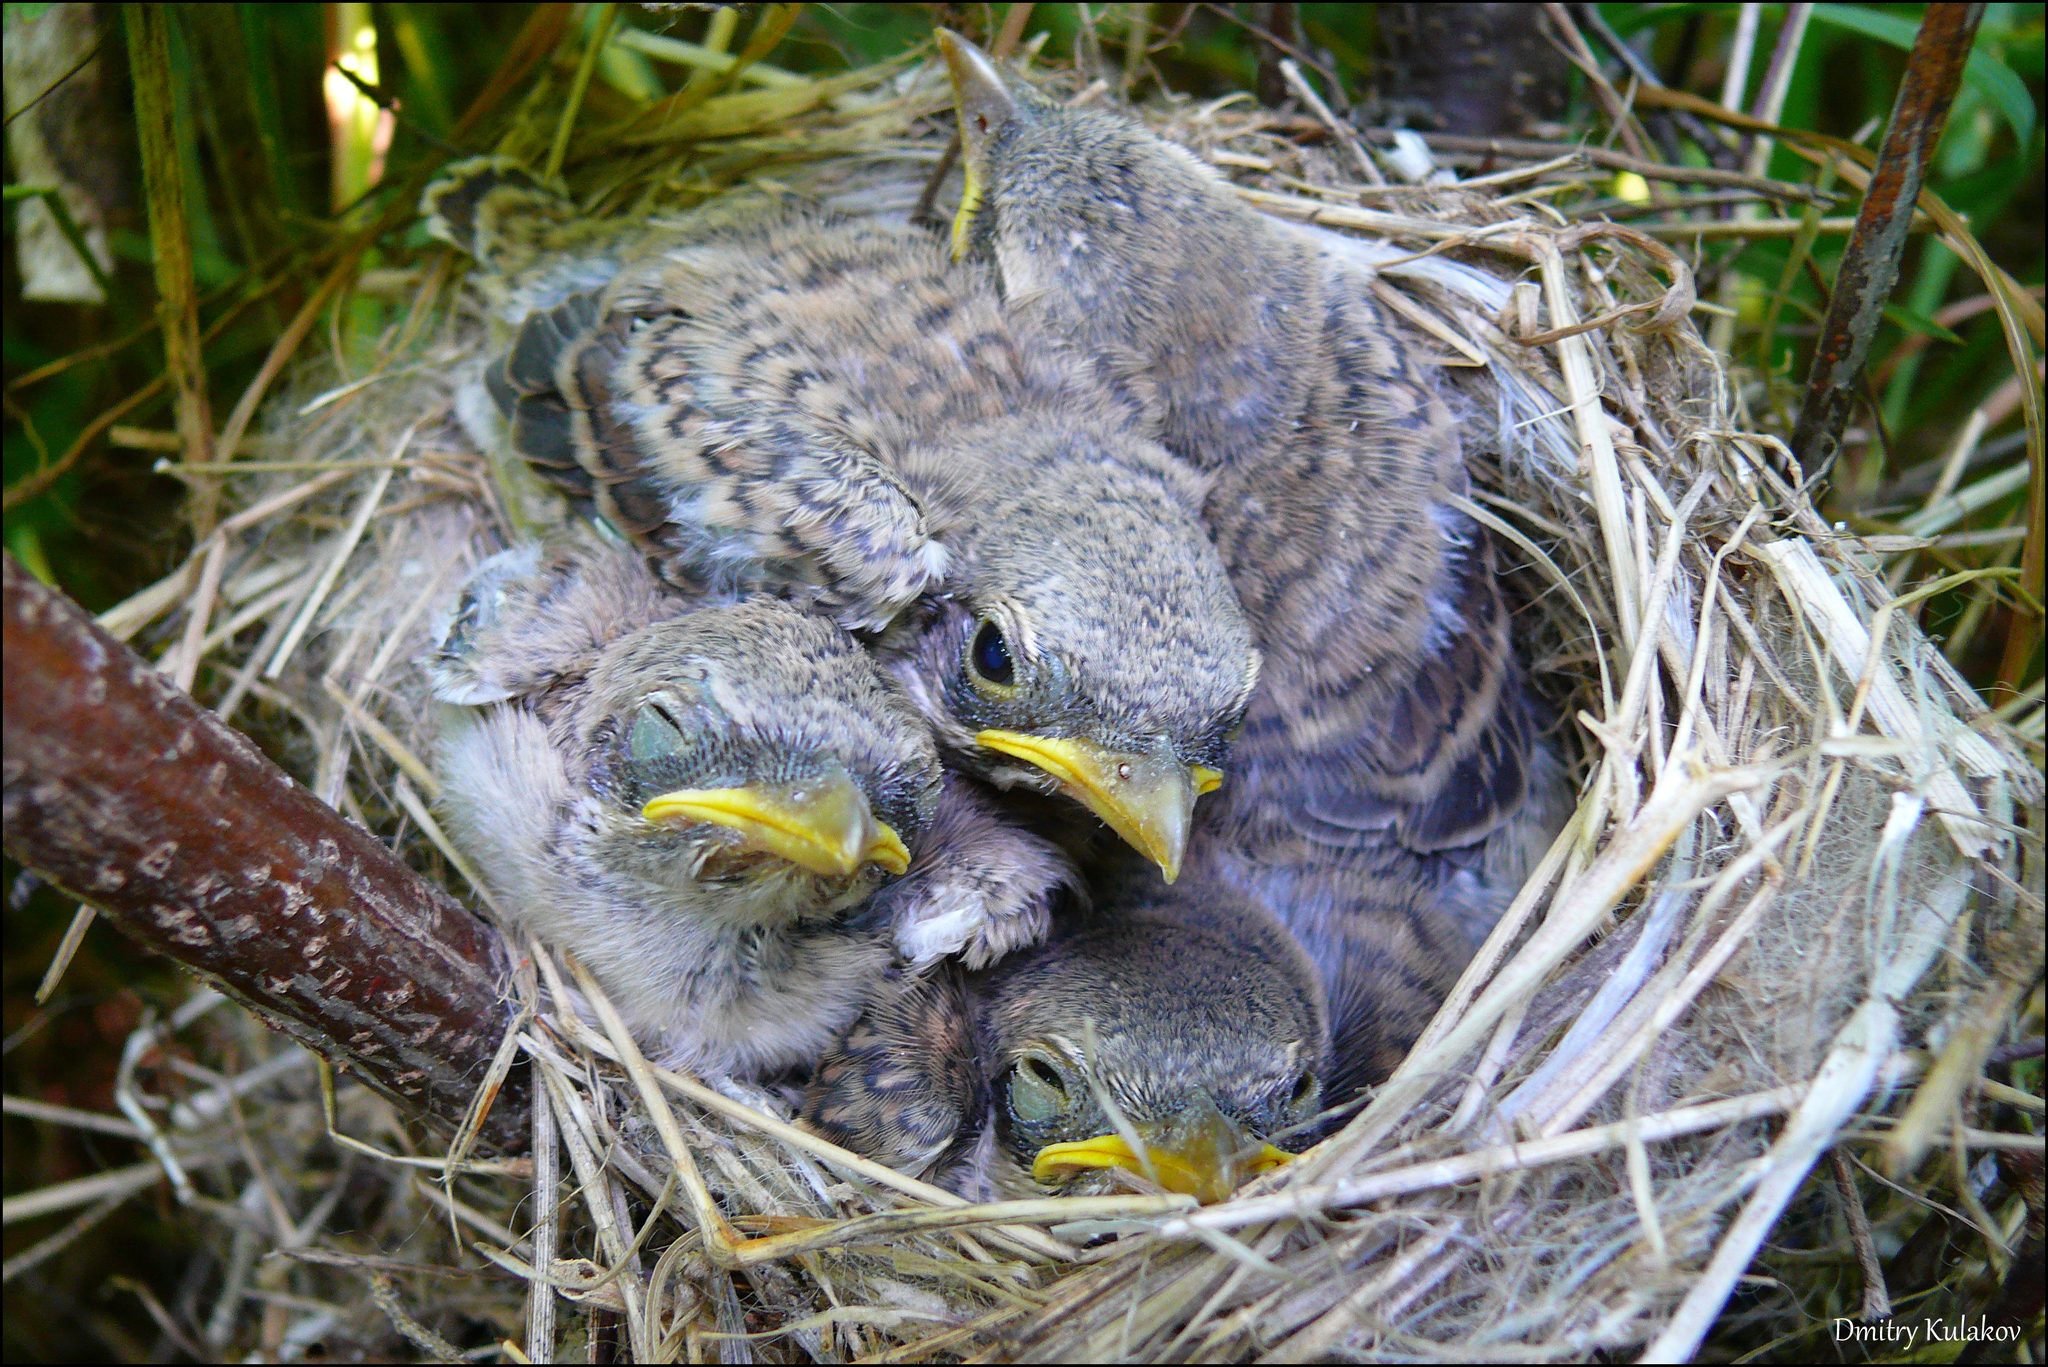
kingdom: Animalia
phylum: Chordata
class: Aves
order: Passeriformes
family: Laniidae
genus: Lanius
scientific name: Lanius collurio
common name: Red-backed shrike
